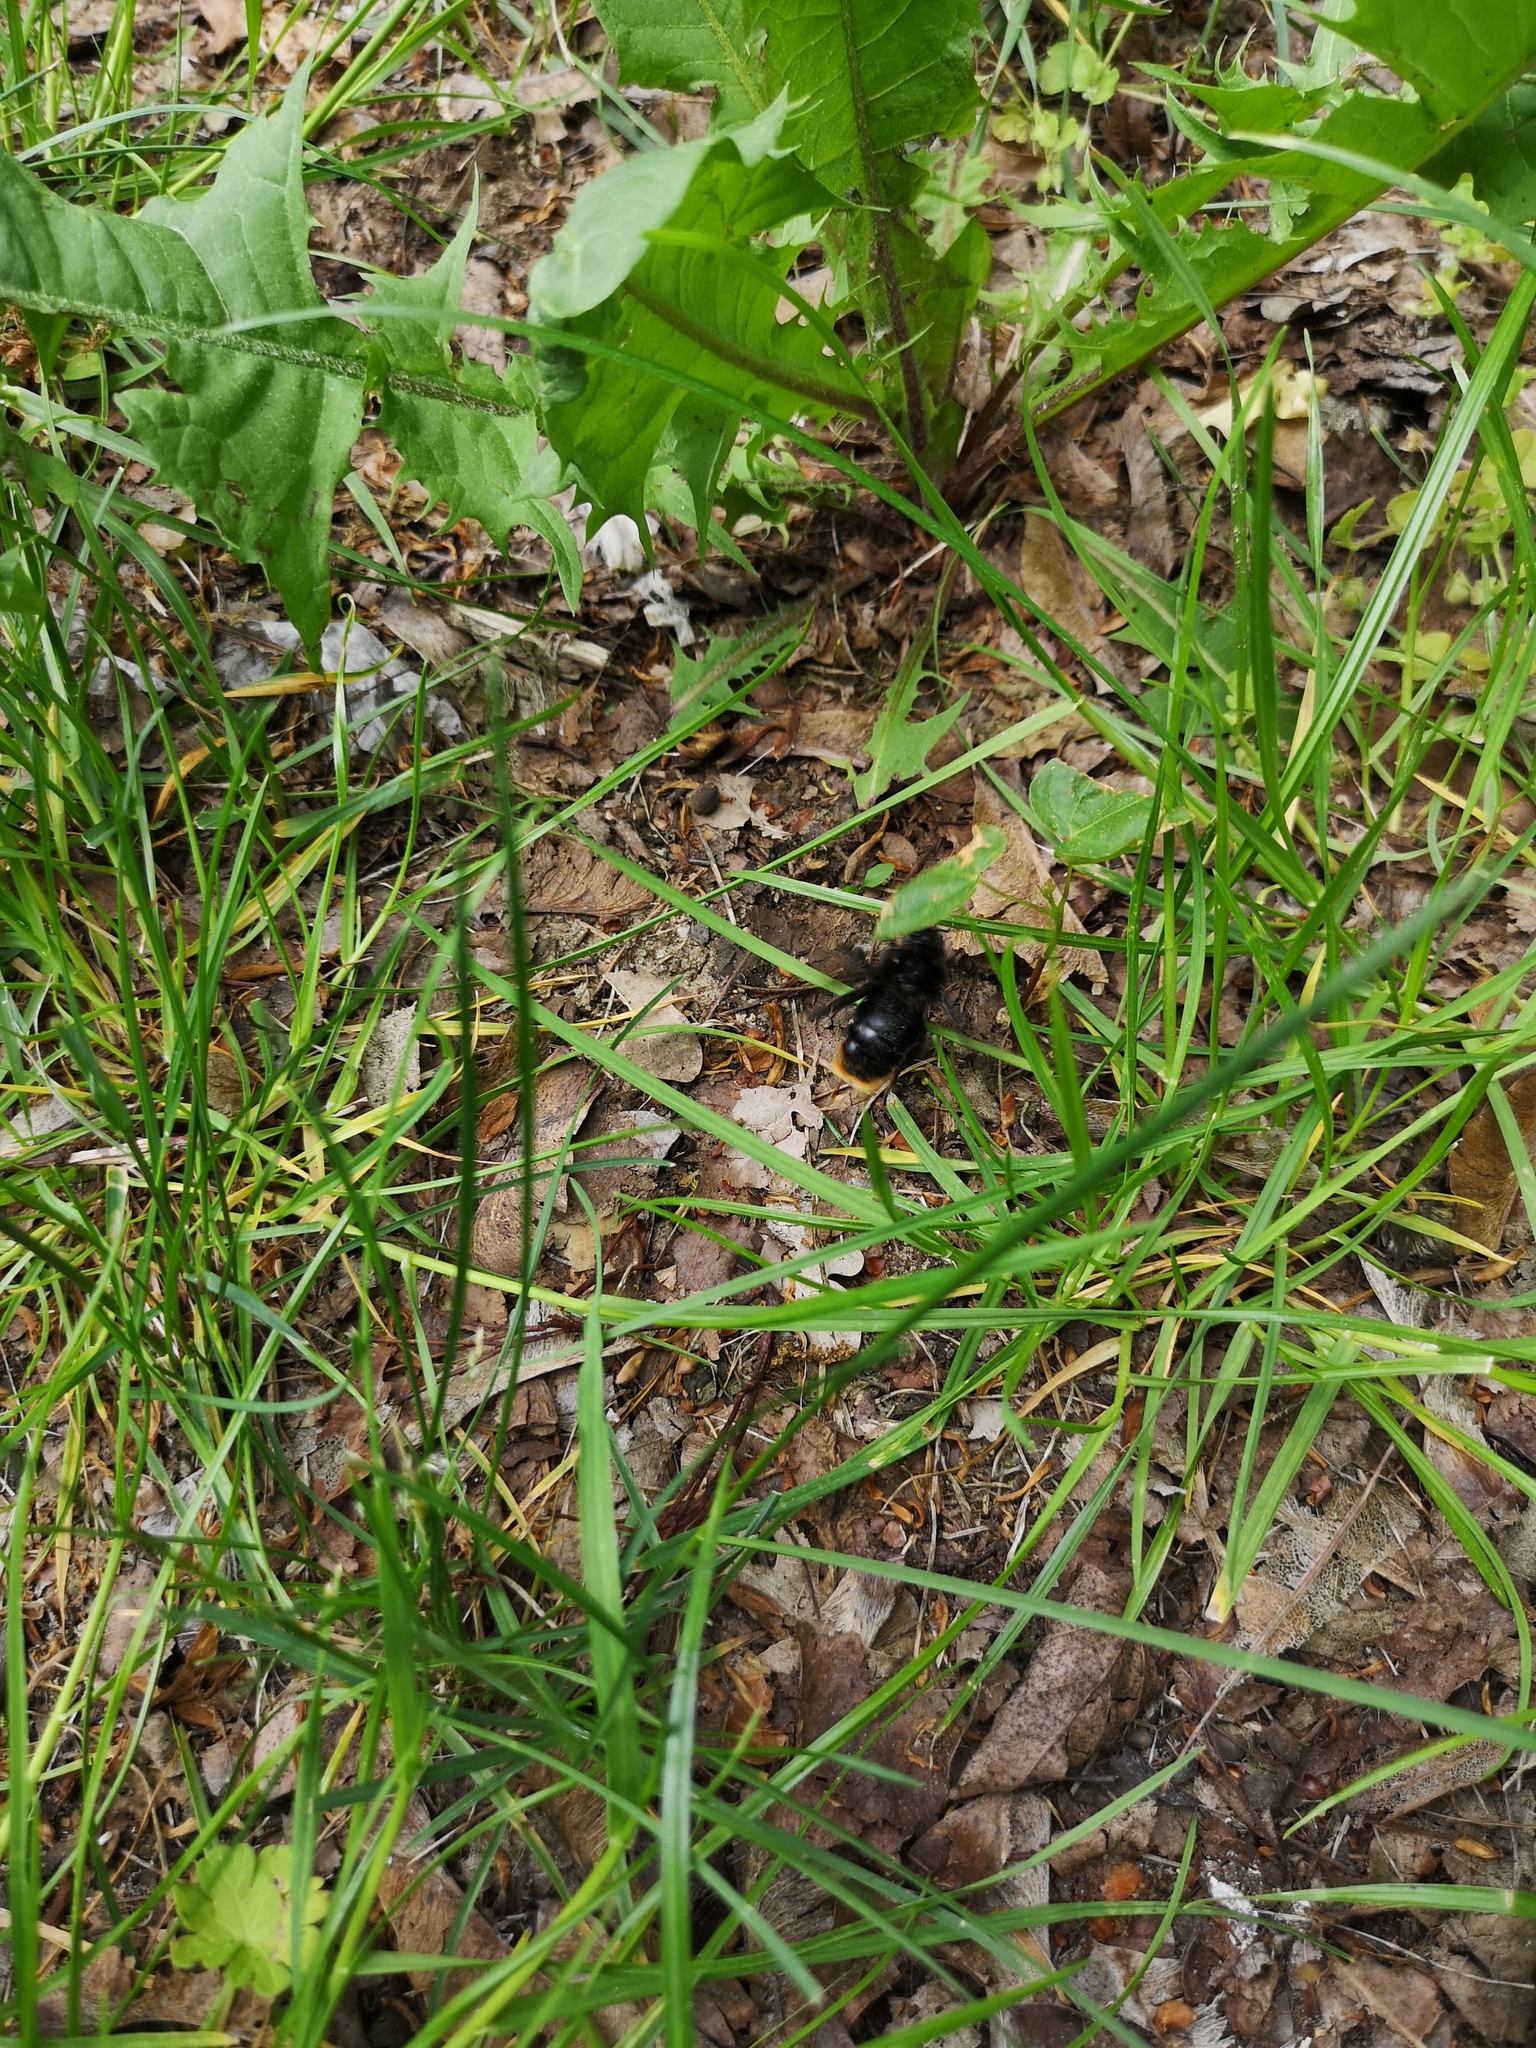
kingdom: Animalia
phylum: Arthropoda
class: Insecta
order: Hymenoptera
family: Apidae
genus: Bombus
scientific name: Bombus rupestris
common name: Hill cuckoo-bee
